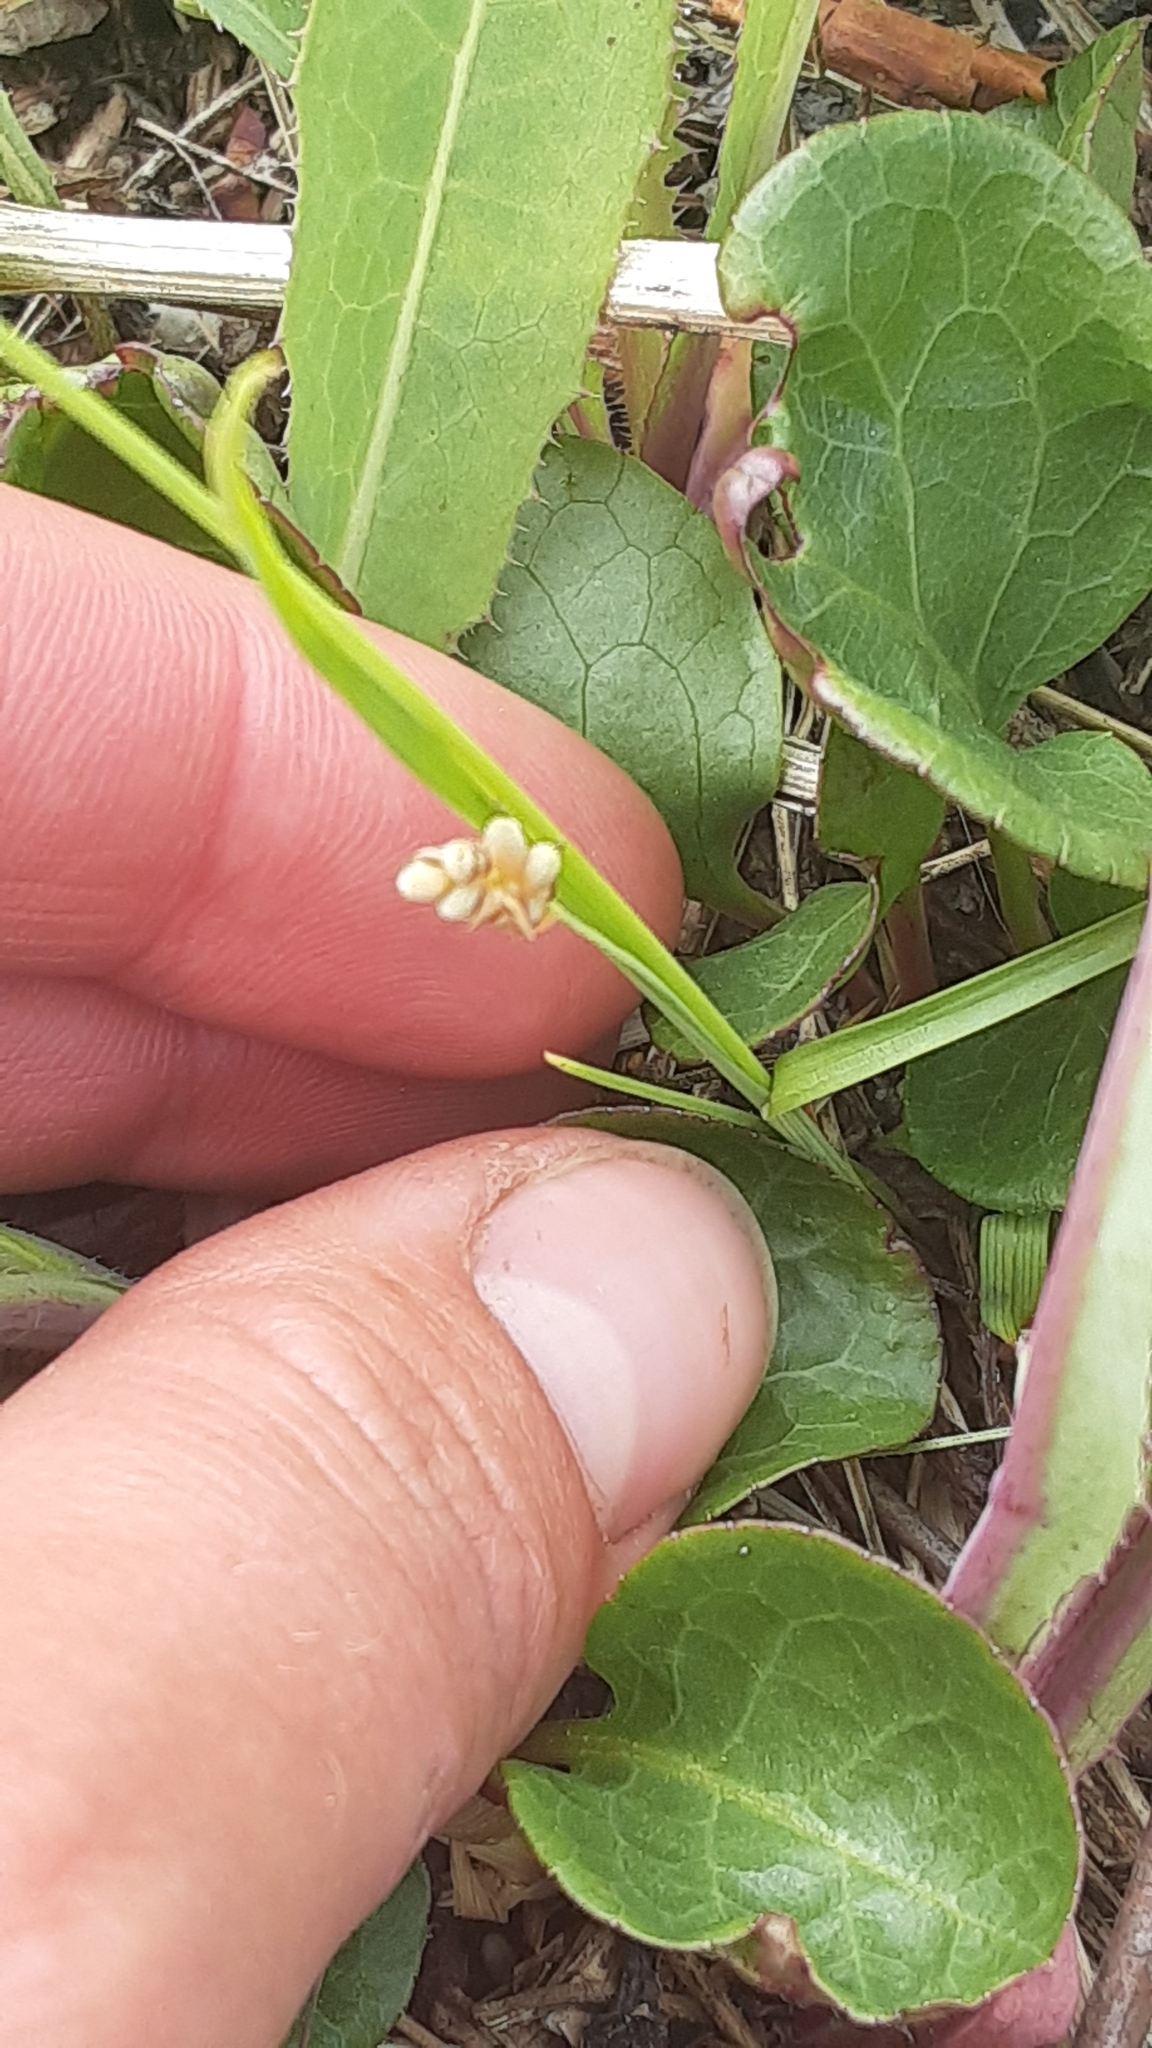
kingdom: Plantae
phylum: Tracheophyta
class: Liliopsida
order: Poales
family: Cyperaceae
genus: Carex
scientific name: Carex aurea
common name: Golden sedge
